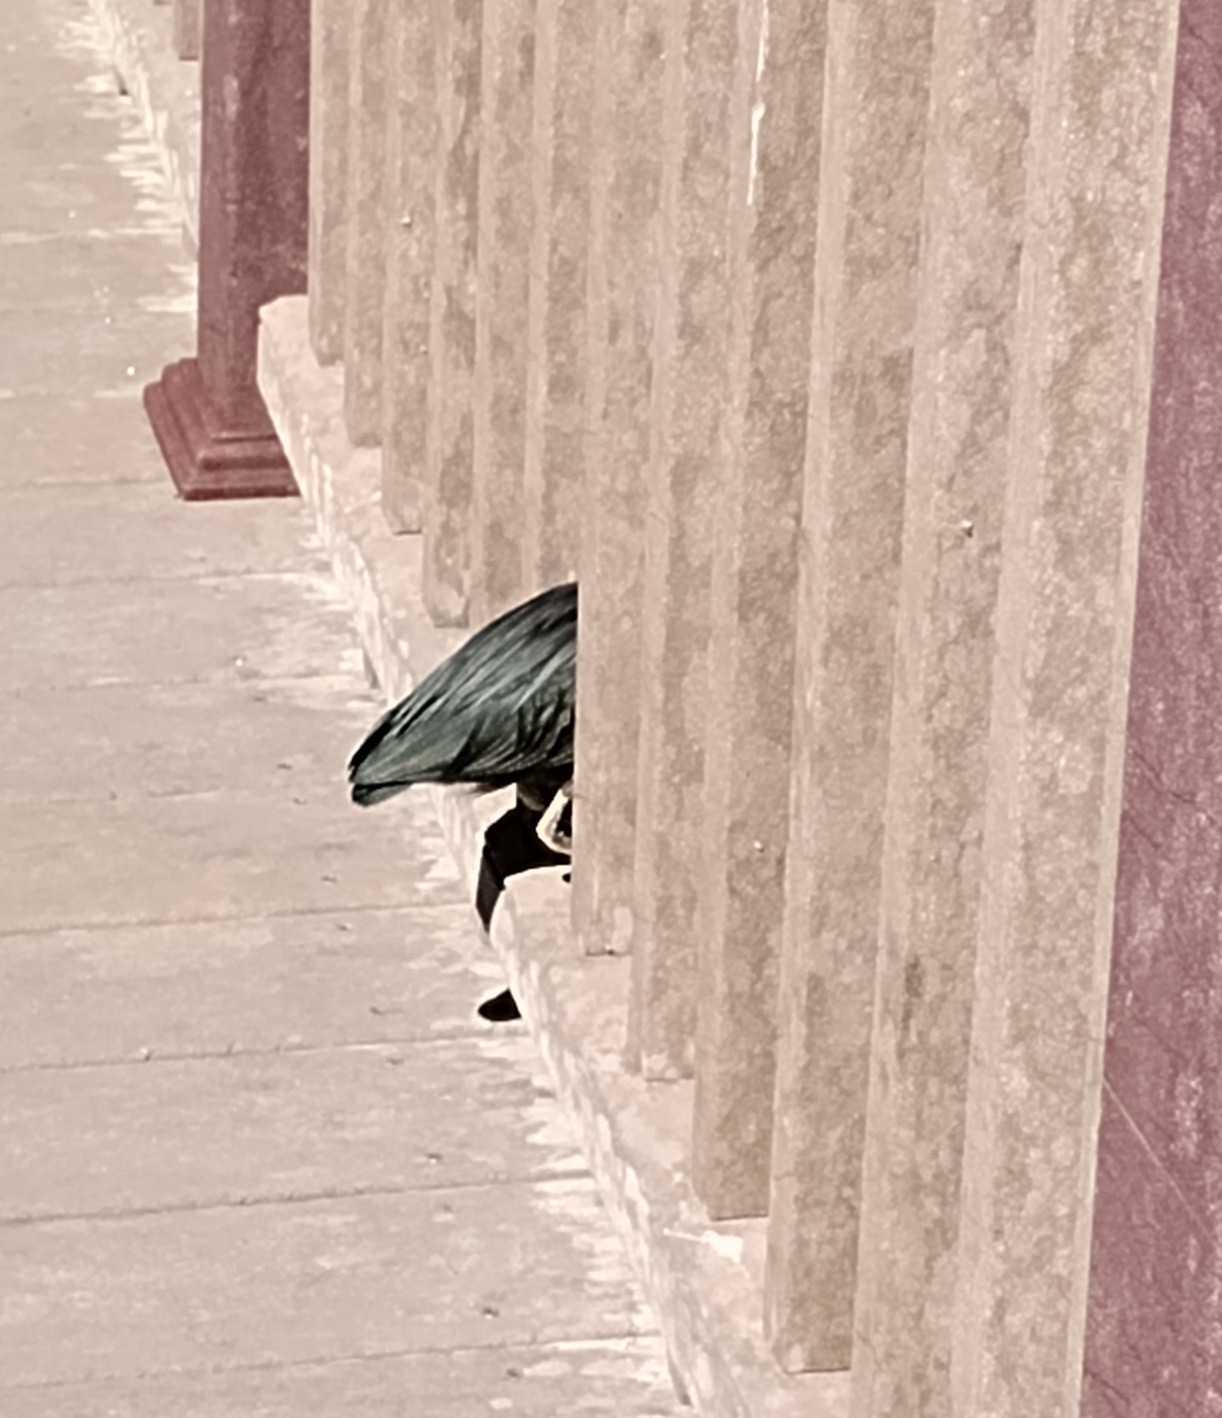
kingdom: Animalia
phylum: Chordata
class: Aves
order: Pelecaniformes
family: Ardeidae
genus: Butorides
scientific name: Butorides virescens
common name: Green heron
